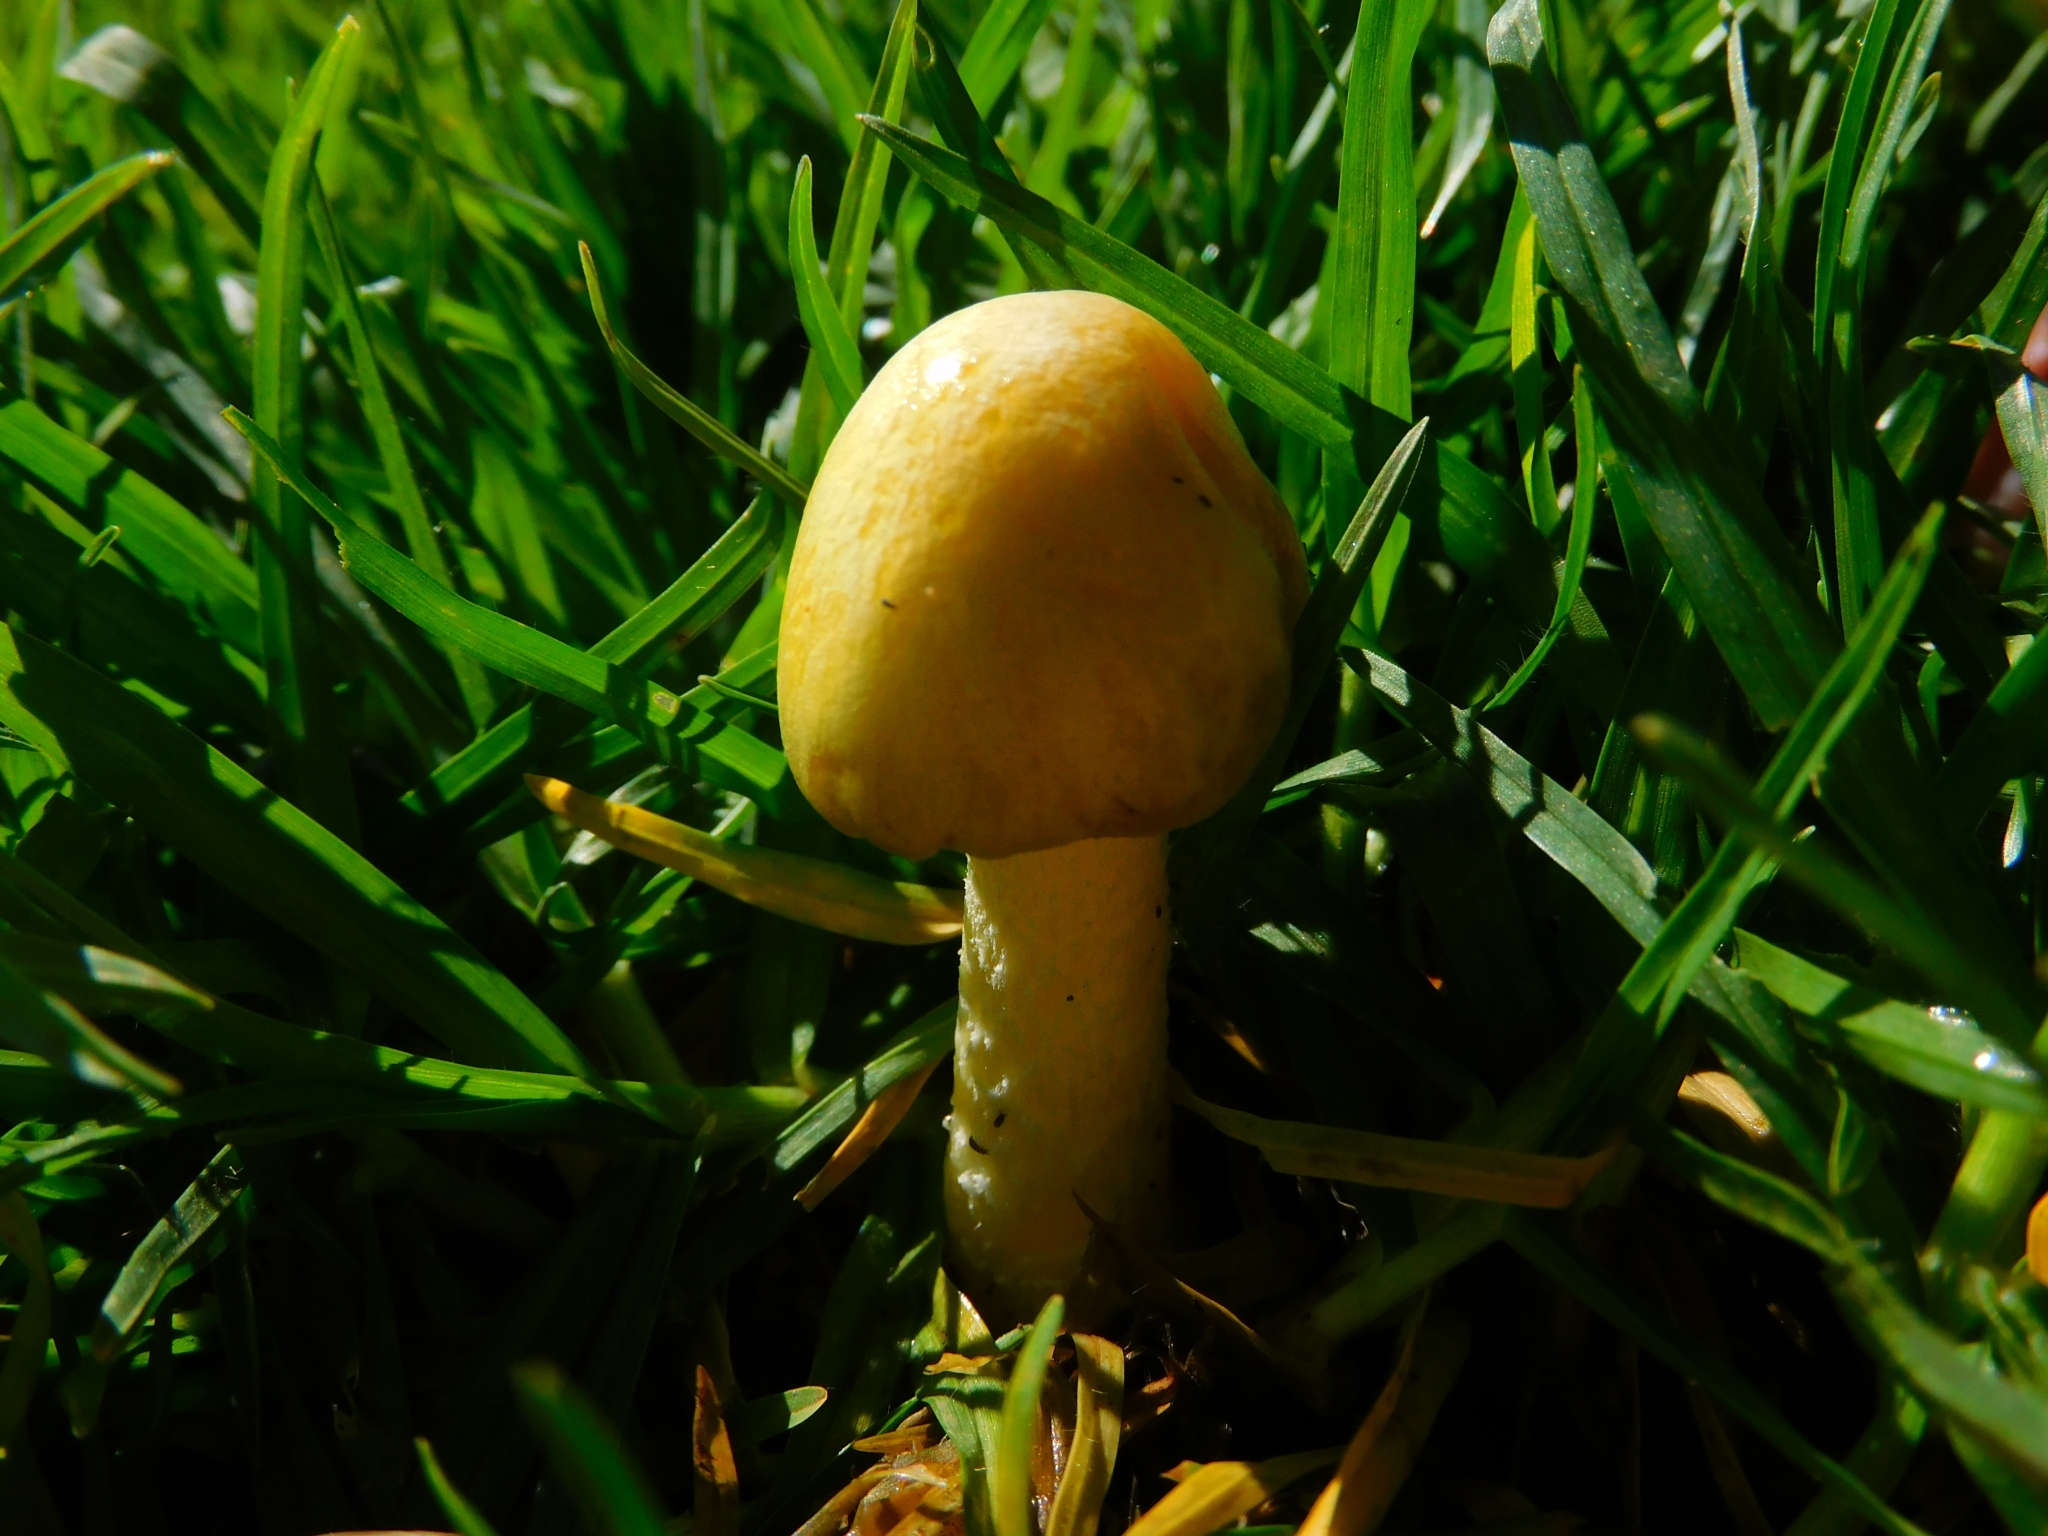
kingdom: Fungi
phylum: Basidiomycota
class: Agaricomycetes
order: Agaricales
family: Bolbitiaceae
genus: Bolbitius
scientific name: Bolbitius titubans
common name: Yellow fieldcap
